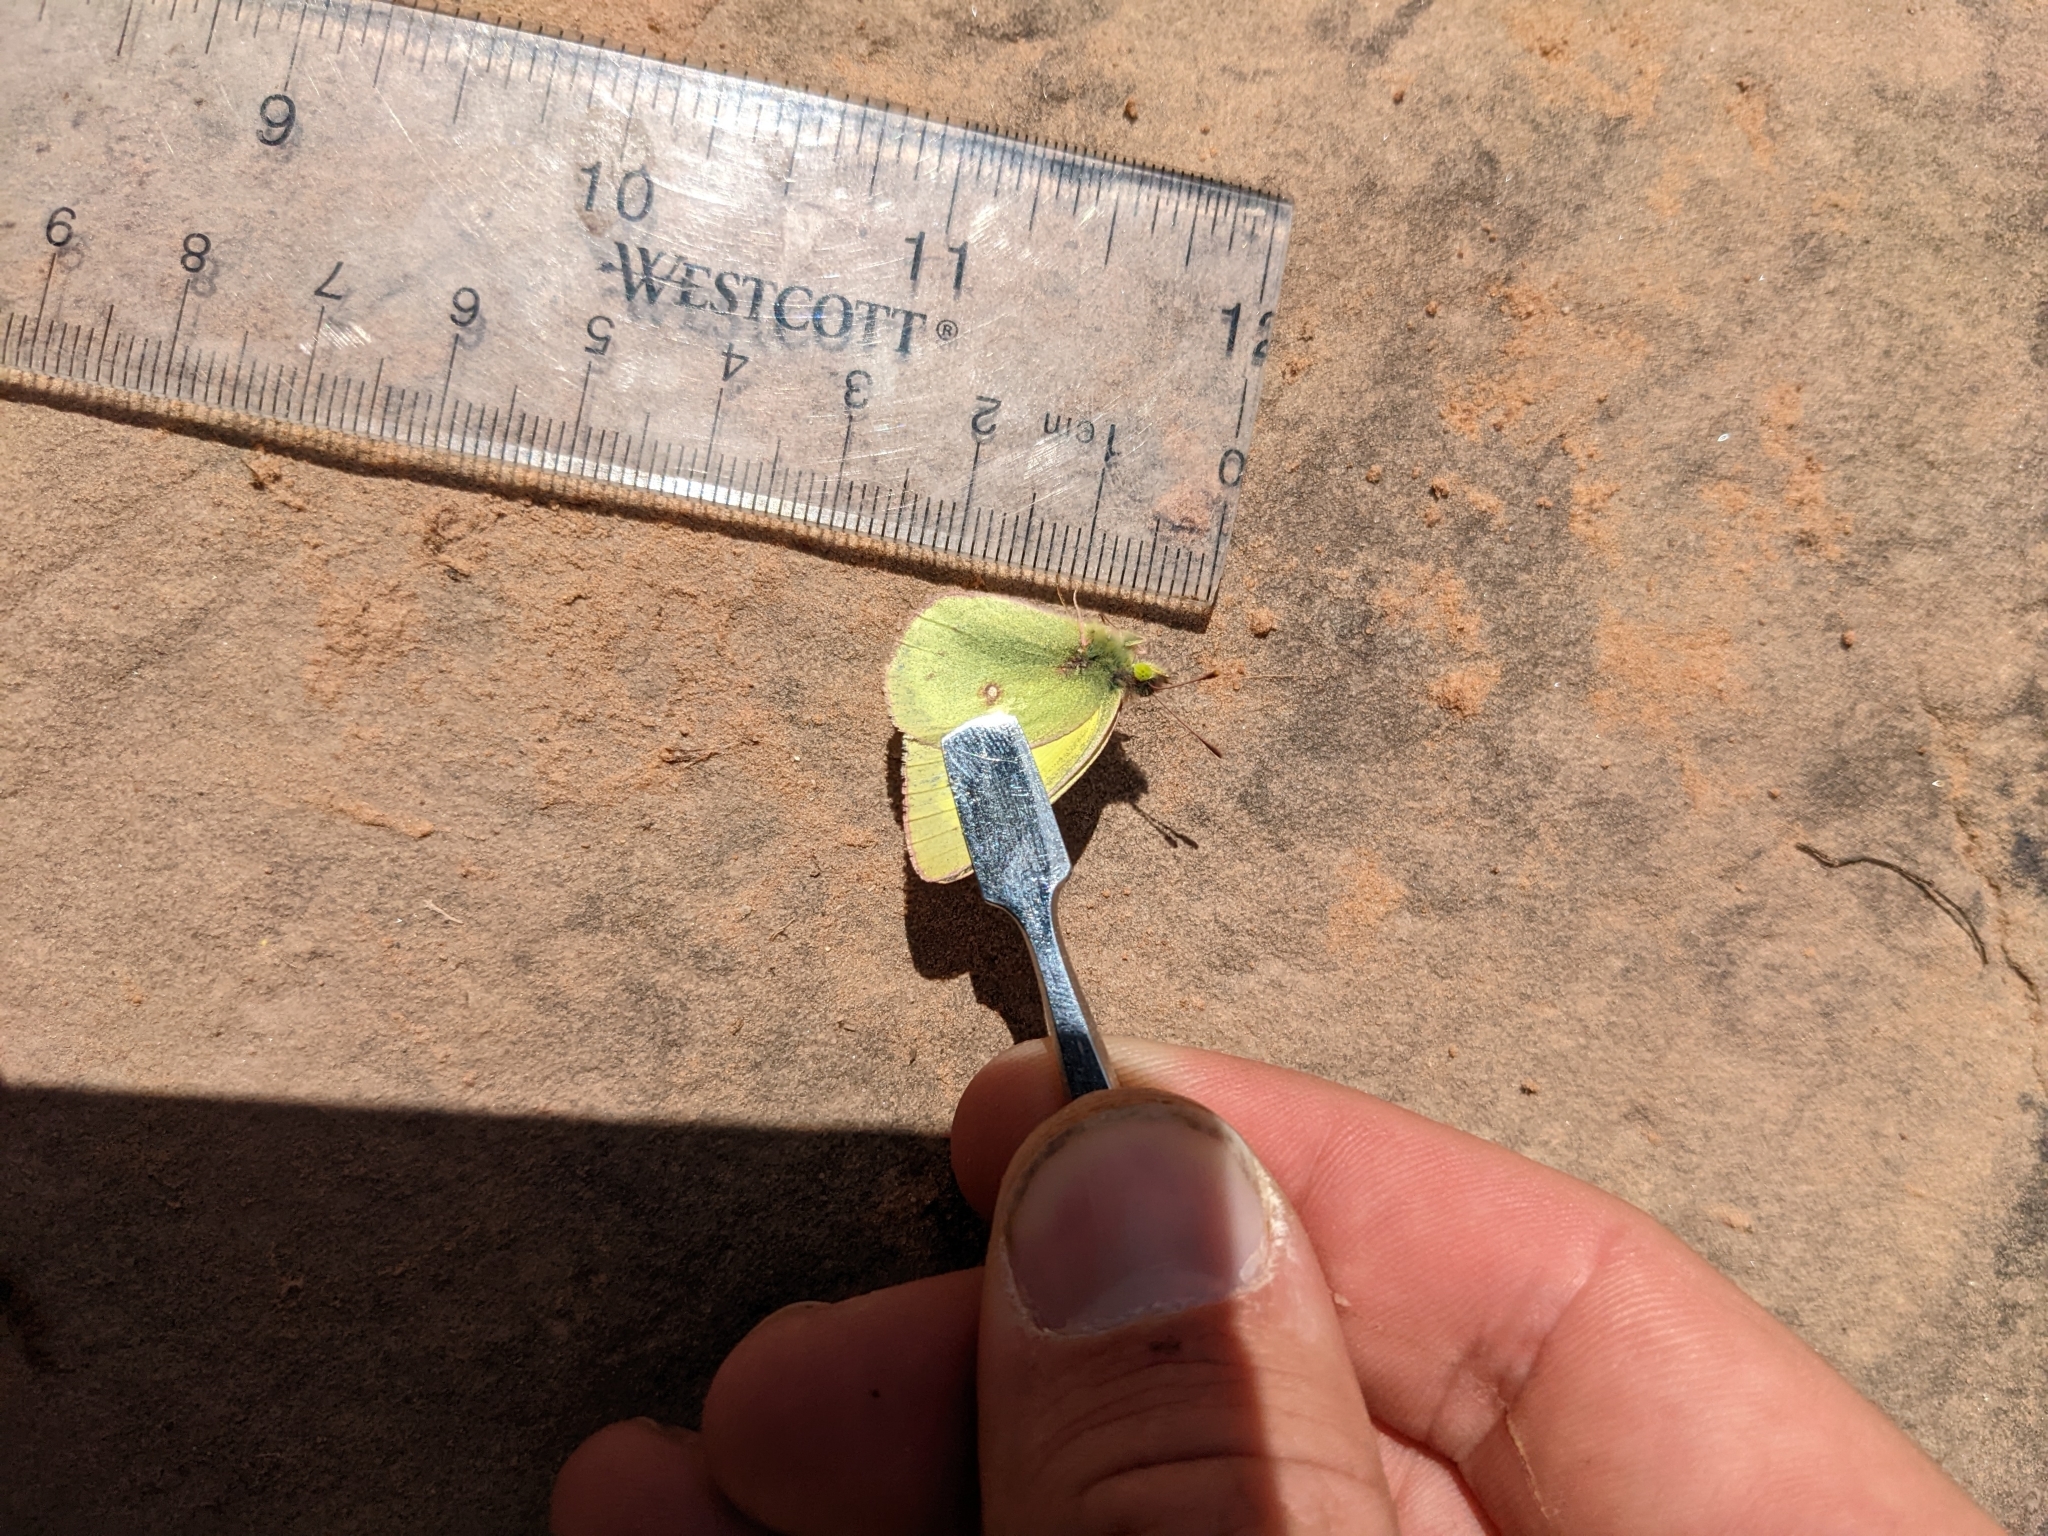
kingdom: Animalia
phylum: Arthropoda
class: Insecta
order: Lepidoptera
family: Pieridae
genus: Colias
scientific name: Colias philodice
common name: Clouded sulphur
